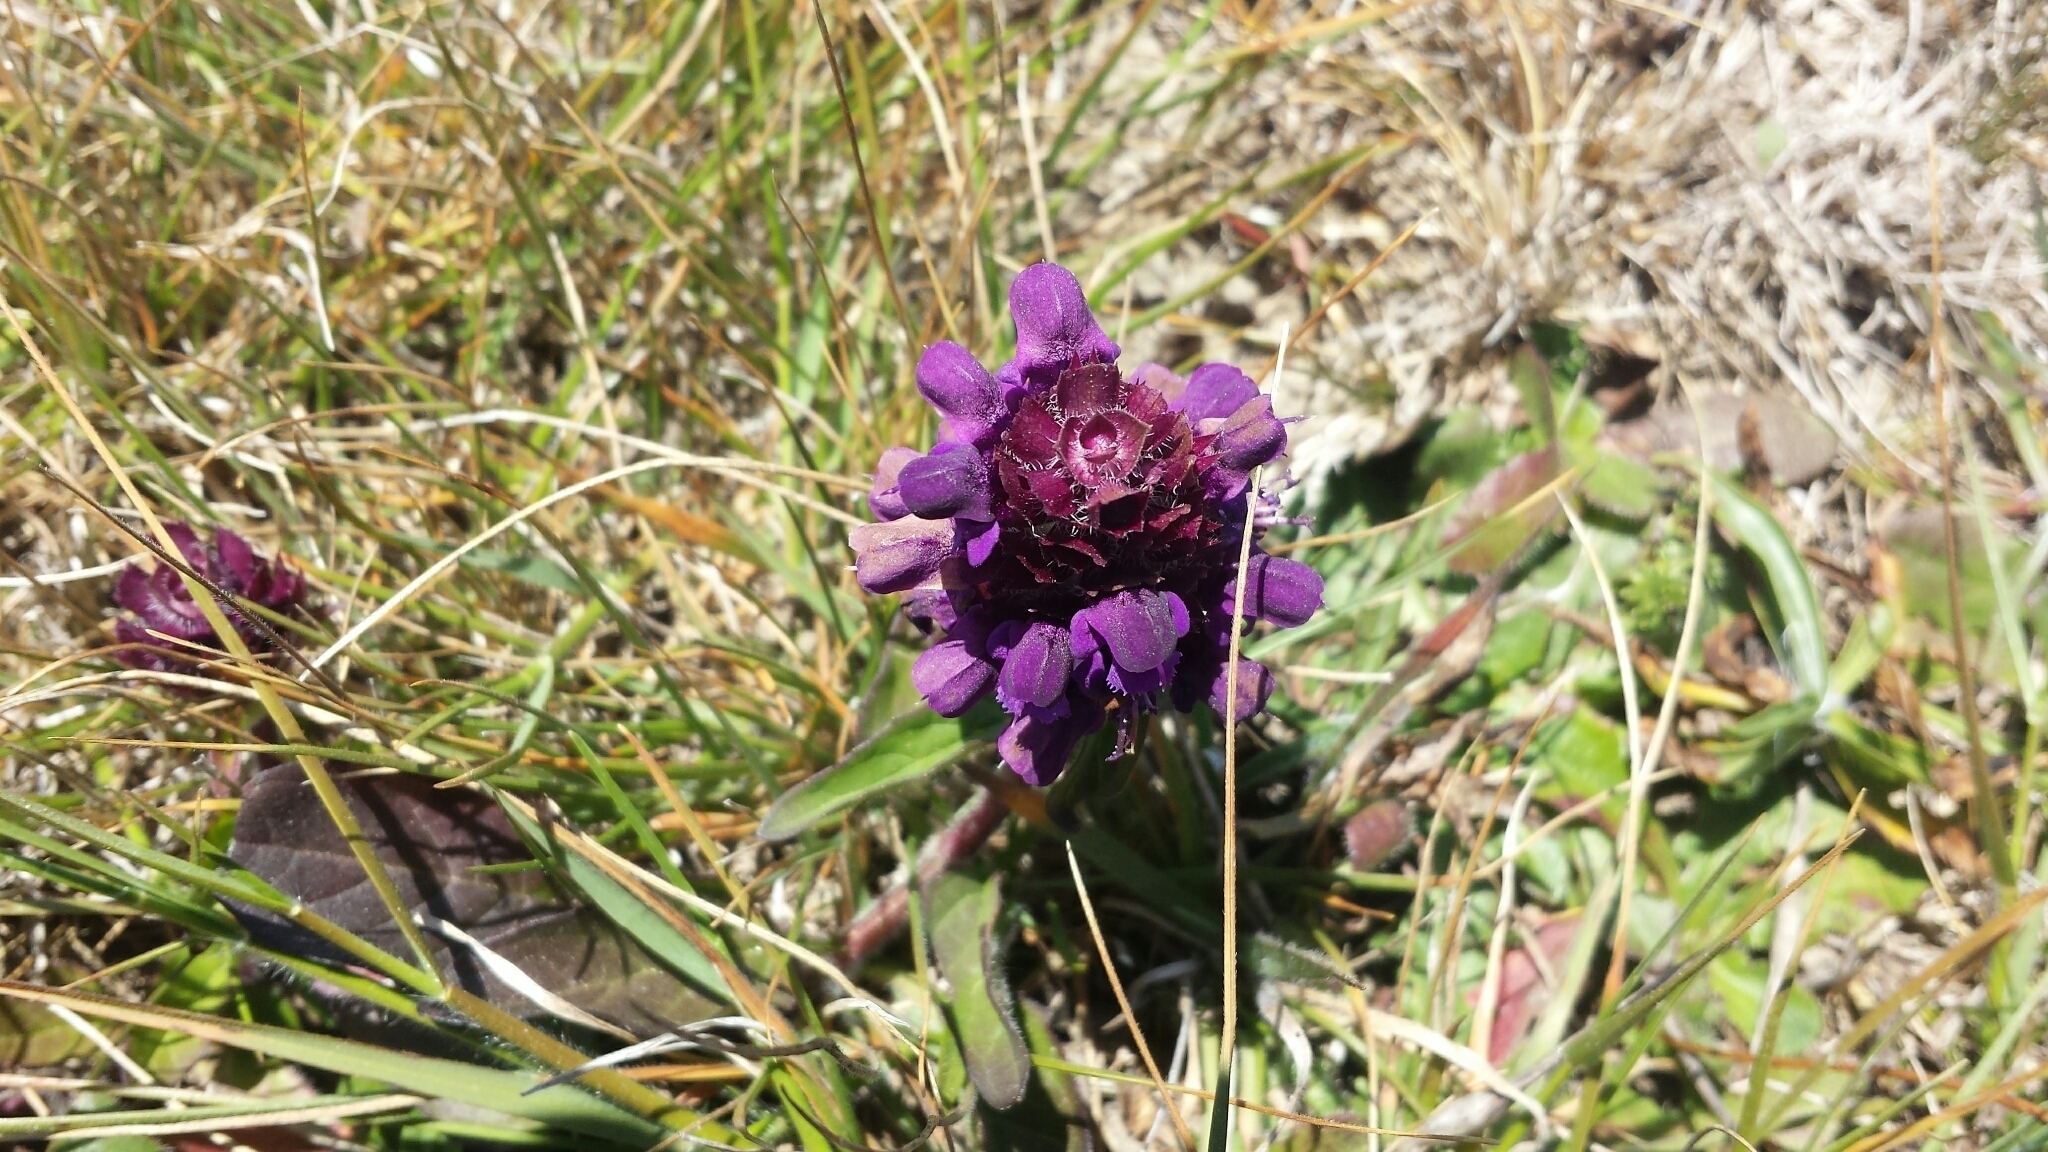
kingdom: Plantae
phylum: Tracheophyta
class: Magnoliopsida
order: Lamiales
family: Lamiaceae
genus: Prunella
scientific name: Prunella vulgaris
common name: Heal-all
